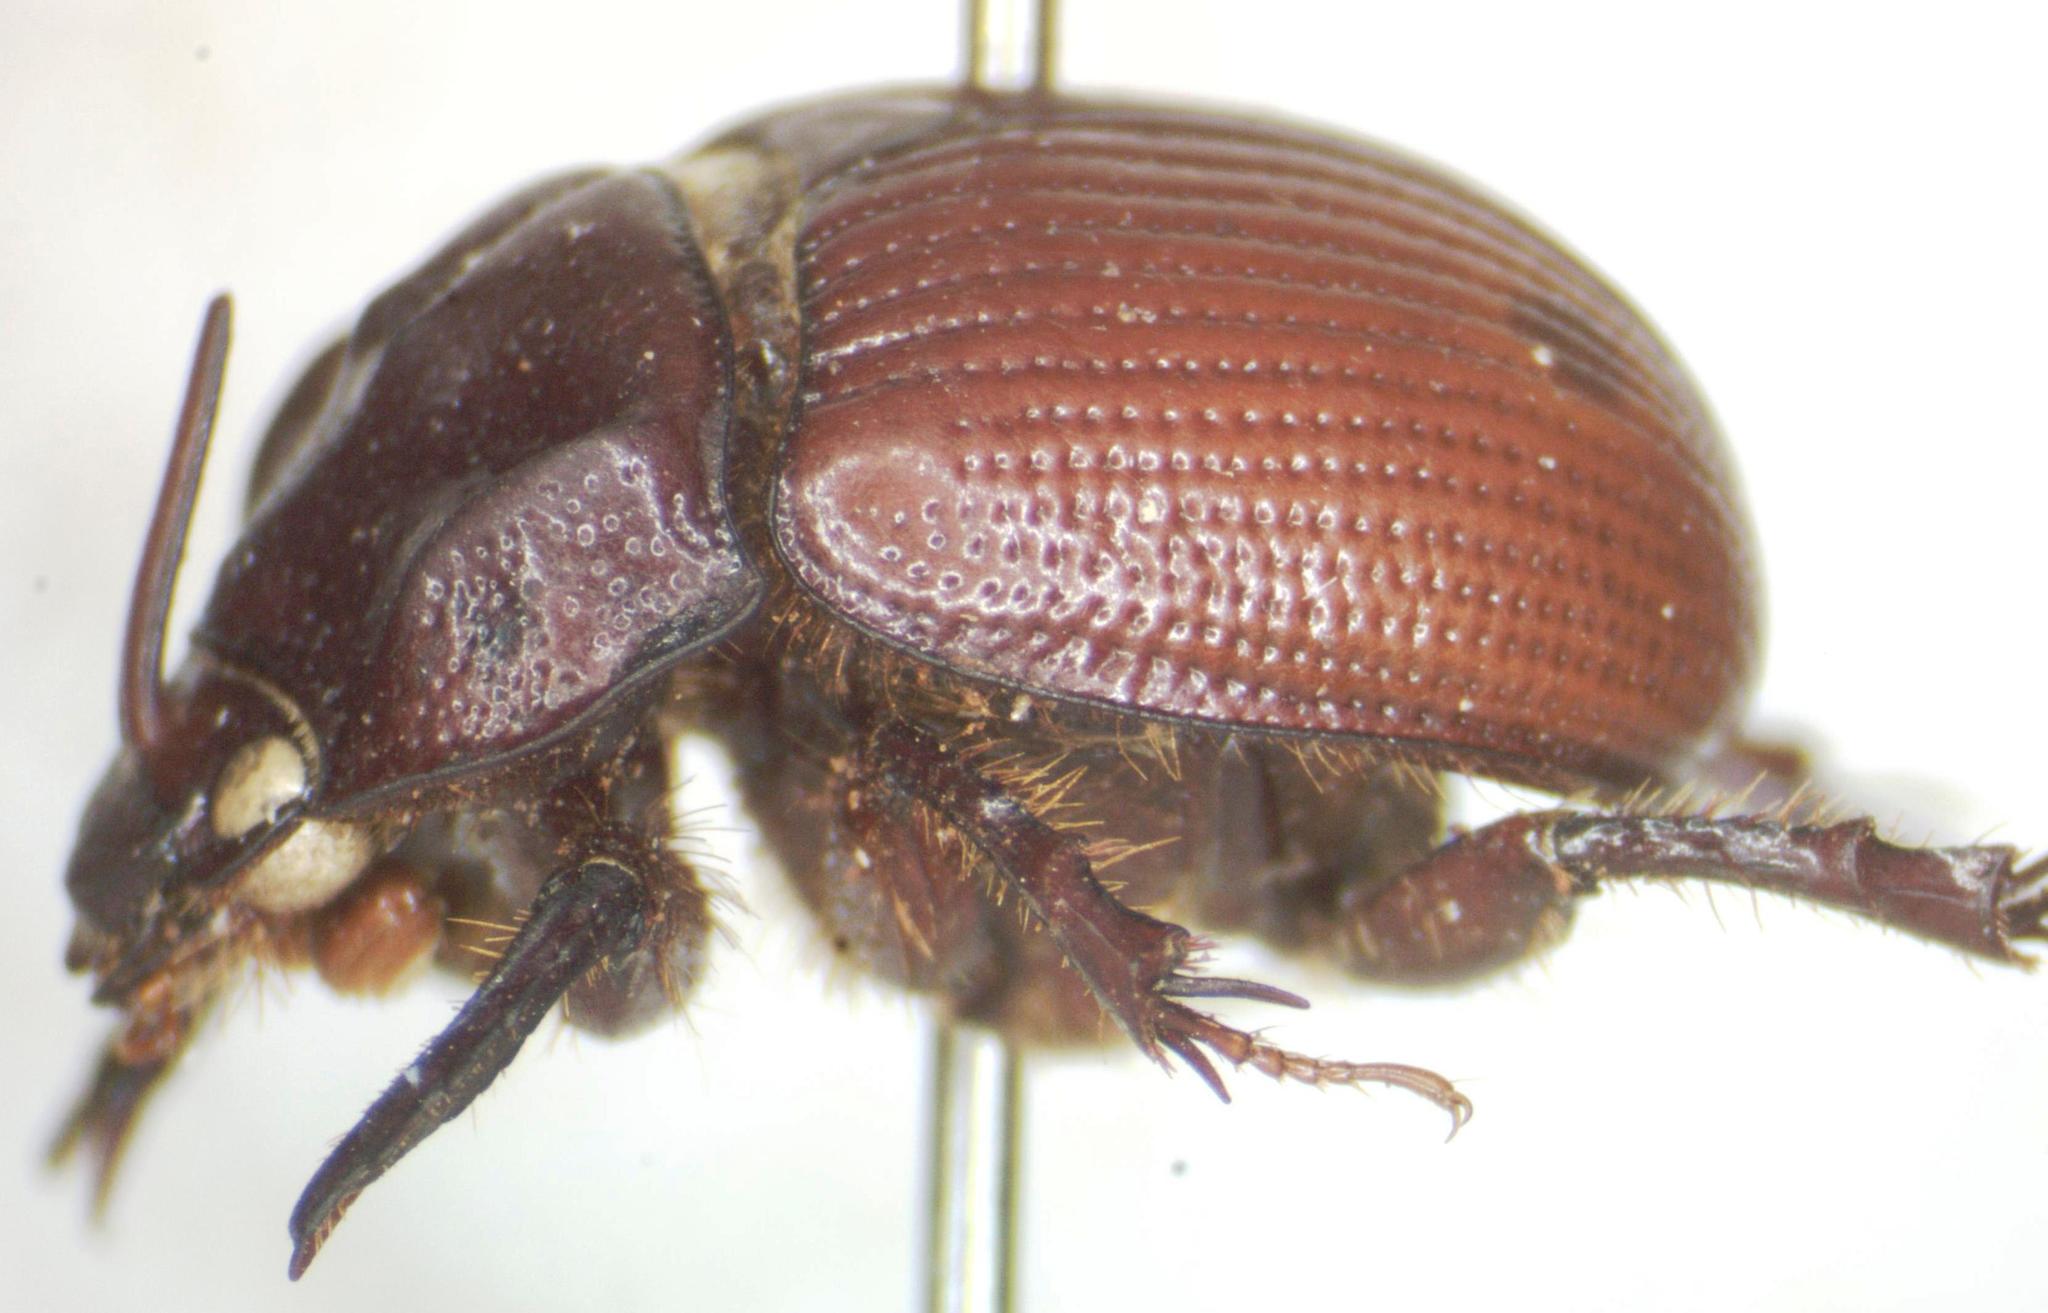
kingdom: Animalia
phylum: Arthropoda
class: Insecta
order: Coleoptera
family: Geotrupidae
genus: Odonteus
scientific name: Odonteus liebecki
